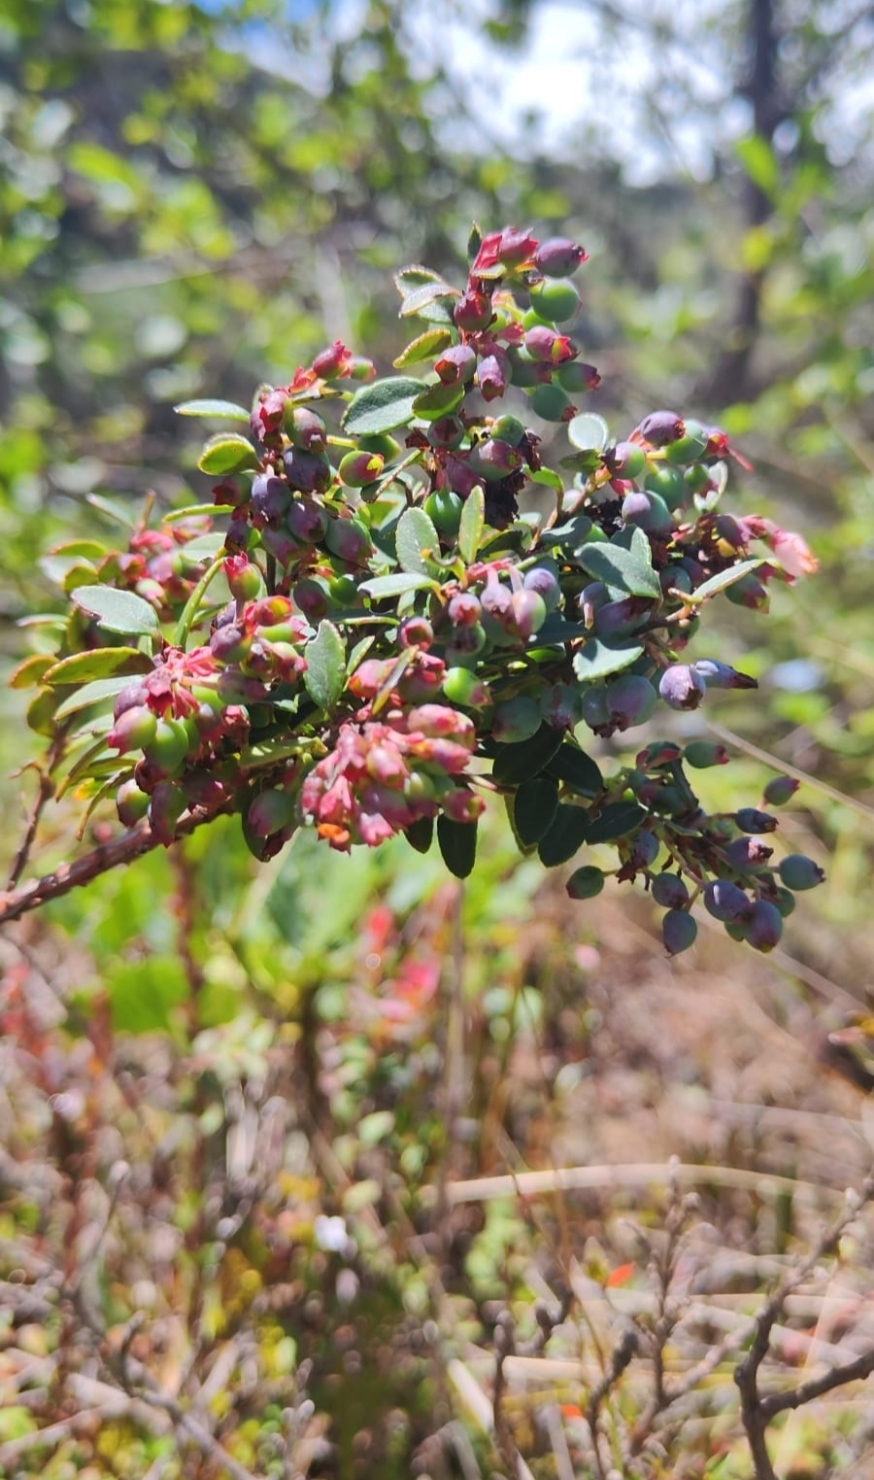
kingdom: Plantae
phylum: Tracheophyta
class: Magnoliopsida
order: Ericales
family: Ericaceae
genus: Vaccinium
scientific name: Vaccinium floribundum
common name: Colombian blueberry
